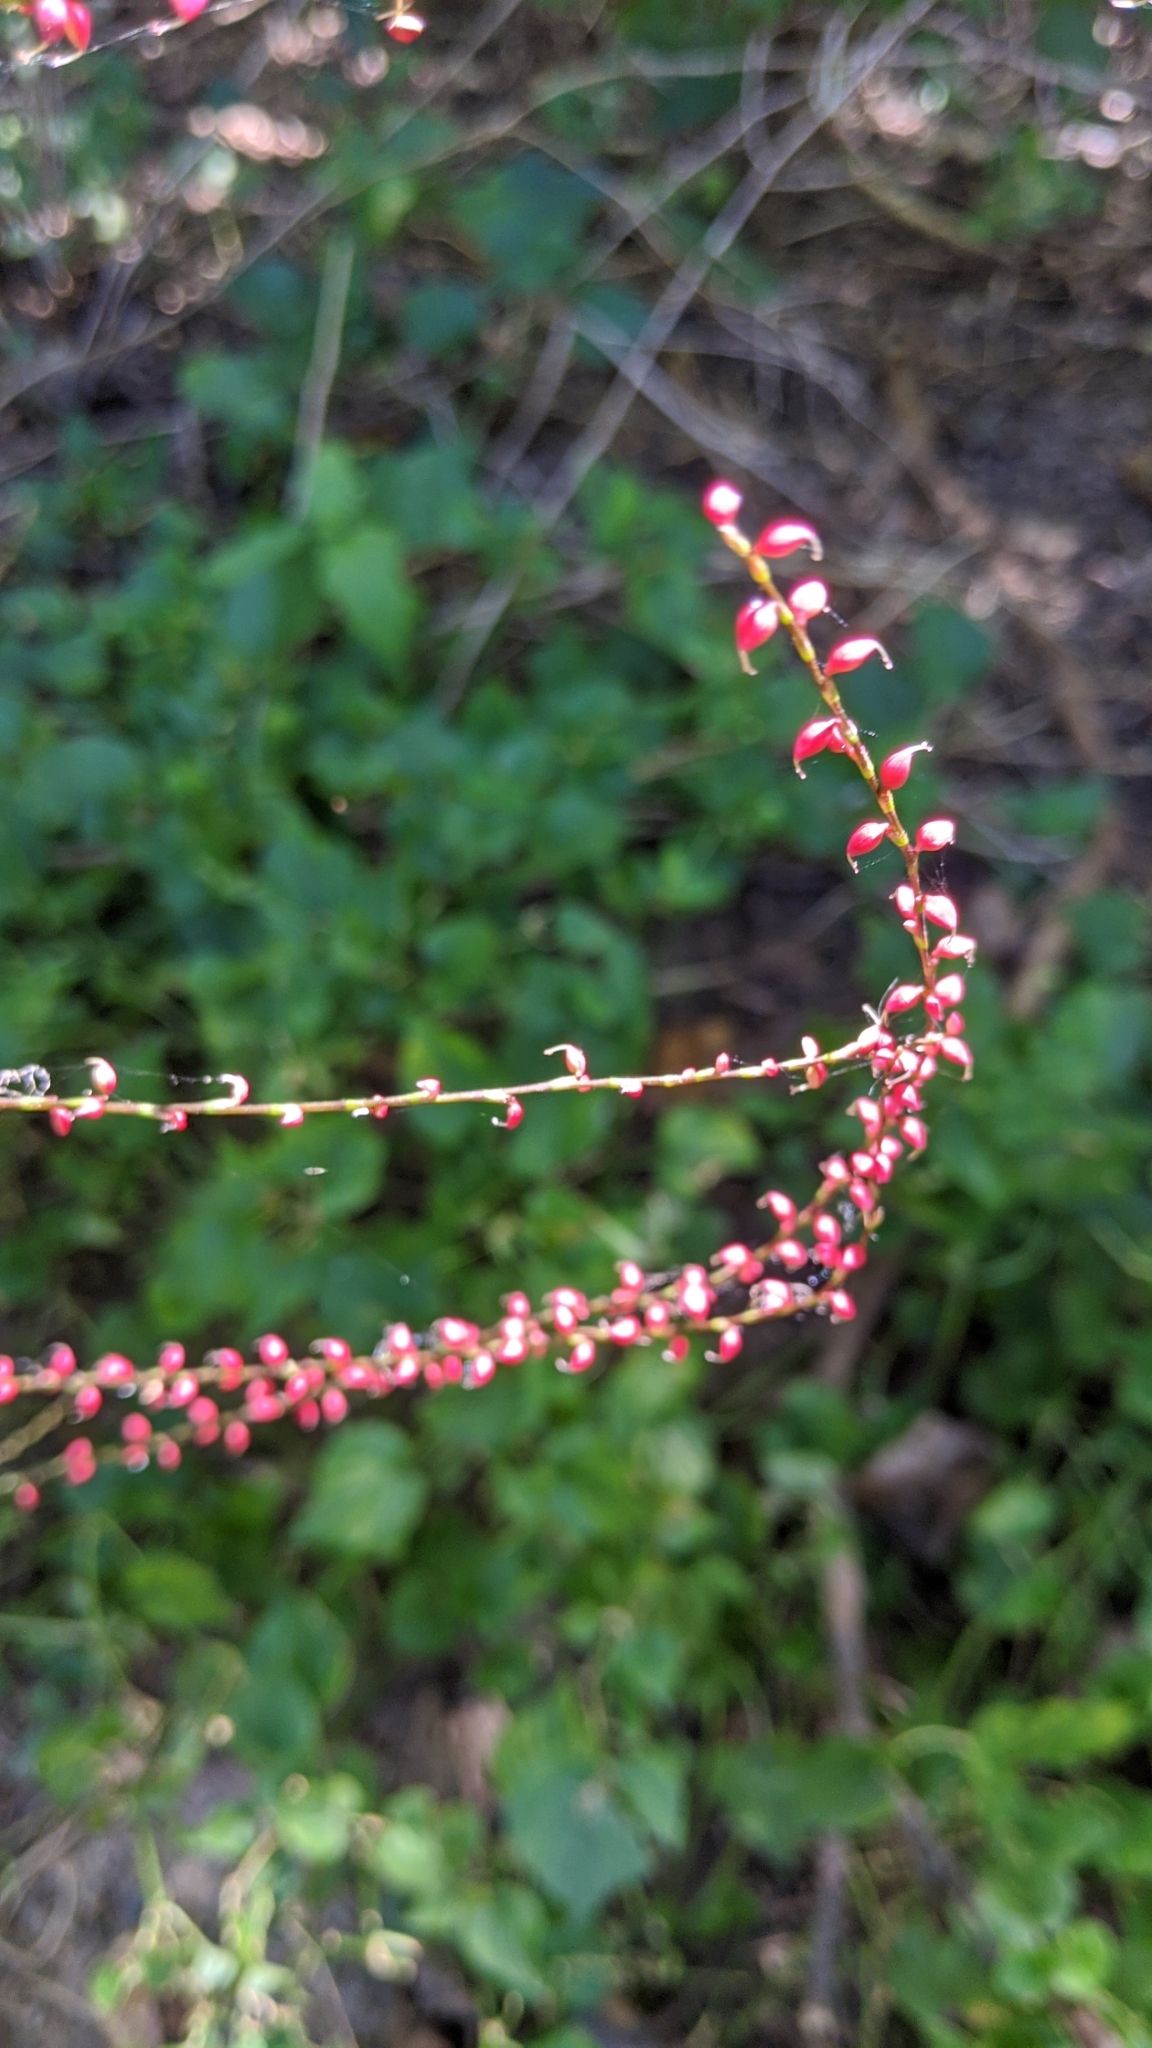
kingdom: Plantae
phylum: Tracheophyta
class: Magnoliopsida
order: Caryophyllales
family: Polygonaceae
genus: Persicaria
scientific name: Persicaria filiformis
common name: Asian jumpseed
